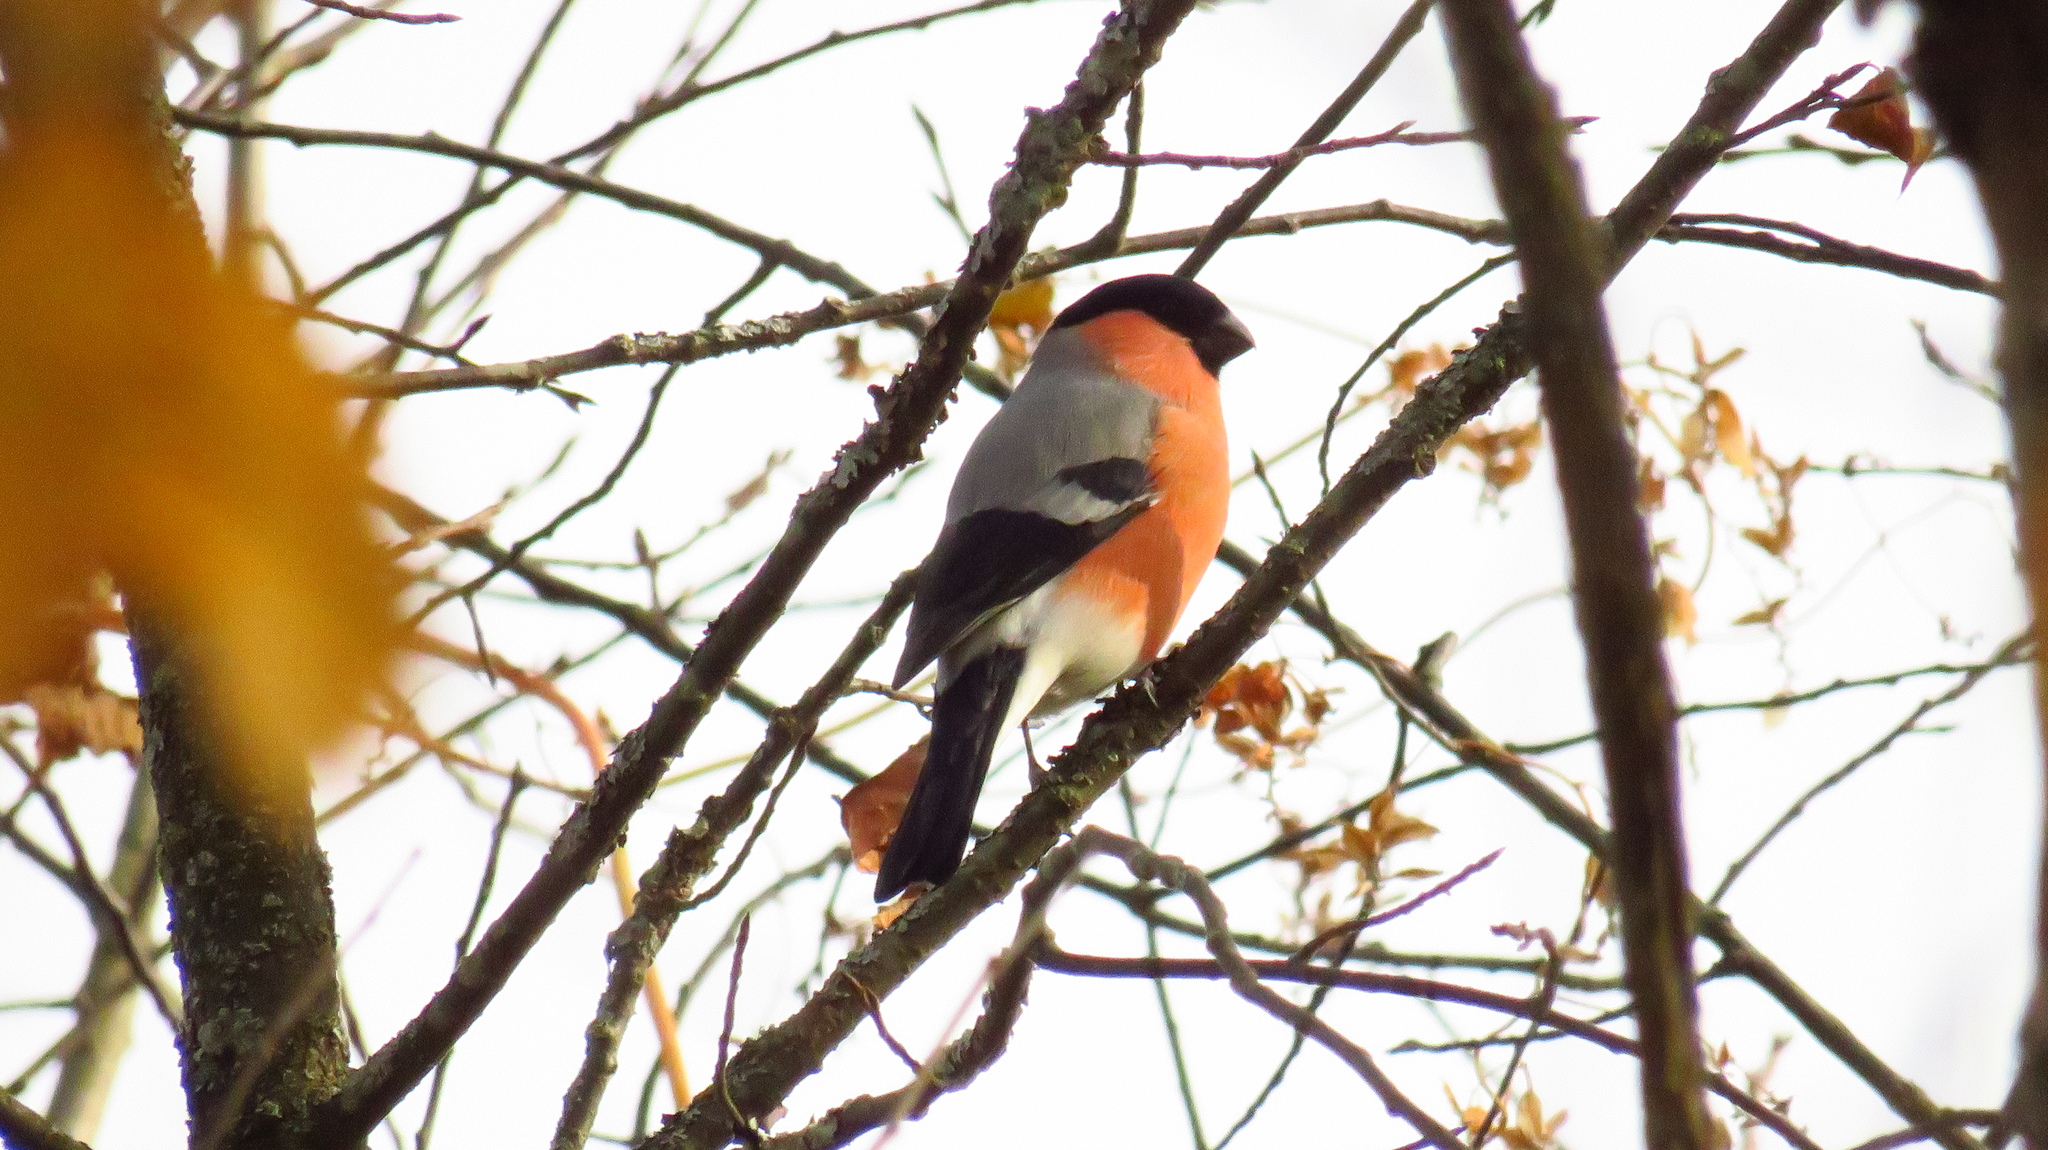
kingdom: Animalia
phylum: Chordata
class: Aves
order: Passeriformes
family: Fringillidae
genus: Pyrrhula
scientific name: Pyrrhula pyrrhula
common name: Eurasian bullfinch
